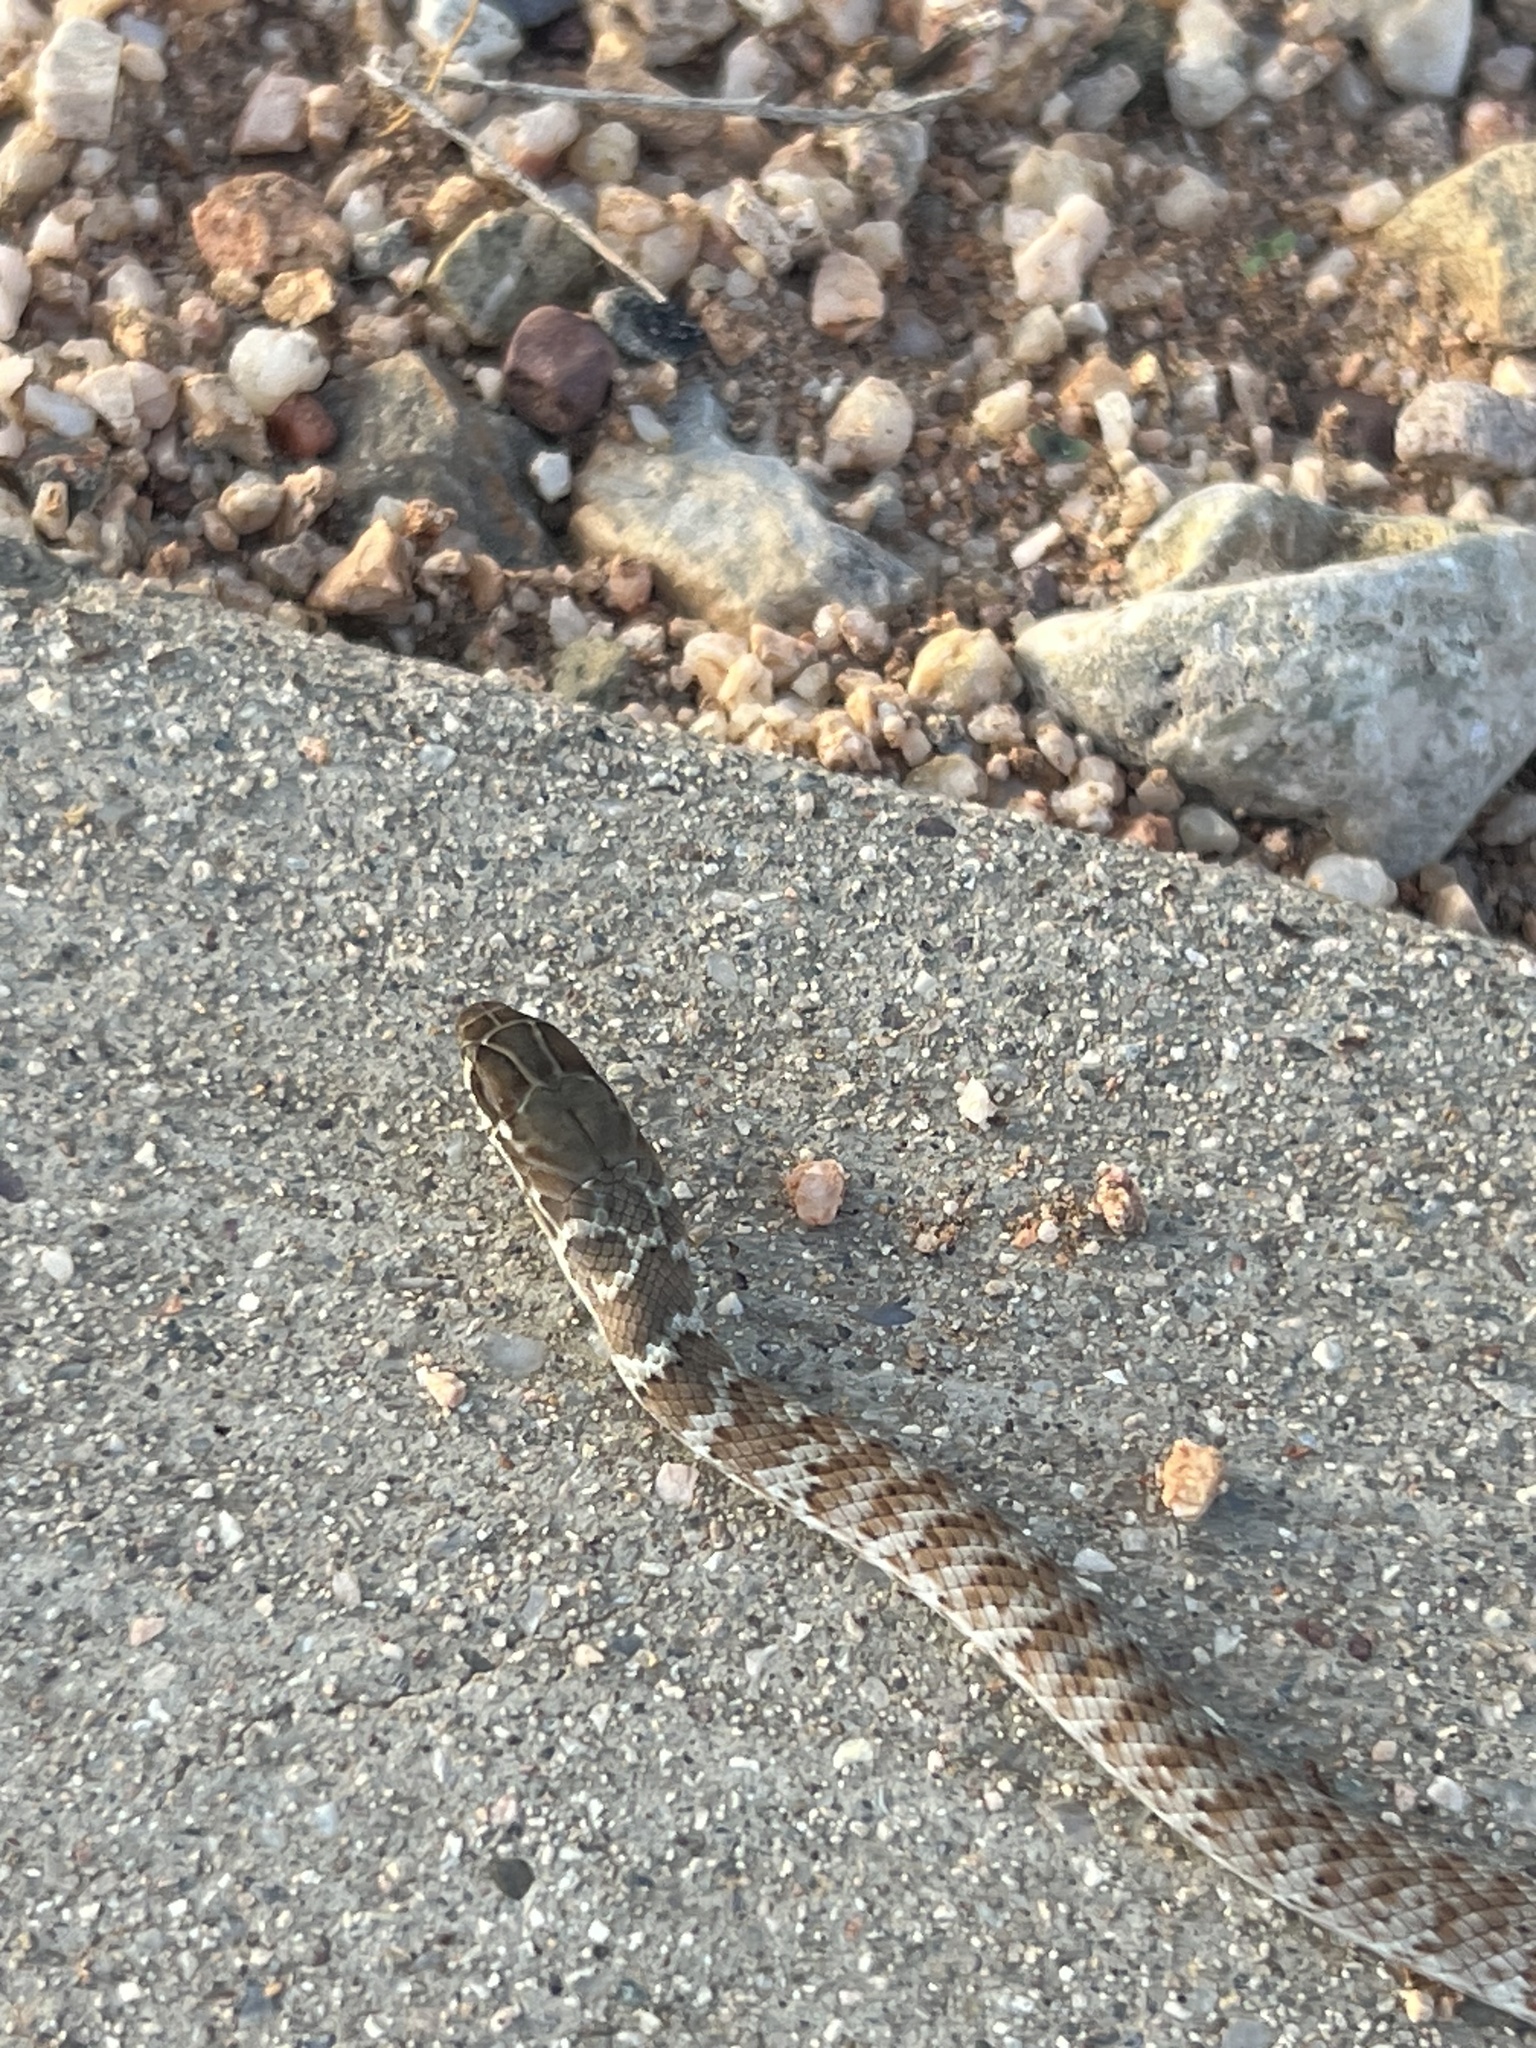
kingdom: Animalia
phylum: Chordata
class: Squamata
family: Colubridae
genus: Masticophis
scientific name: Masticophis flagellum
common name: Coachwhip
